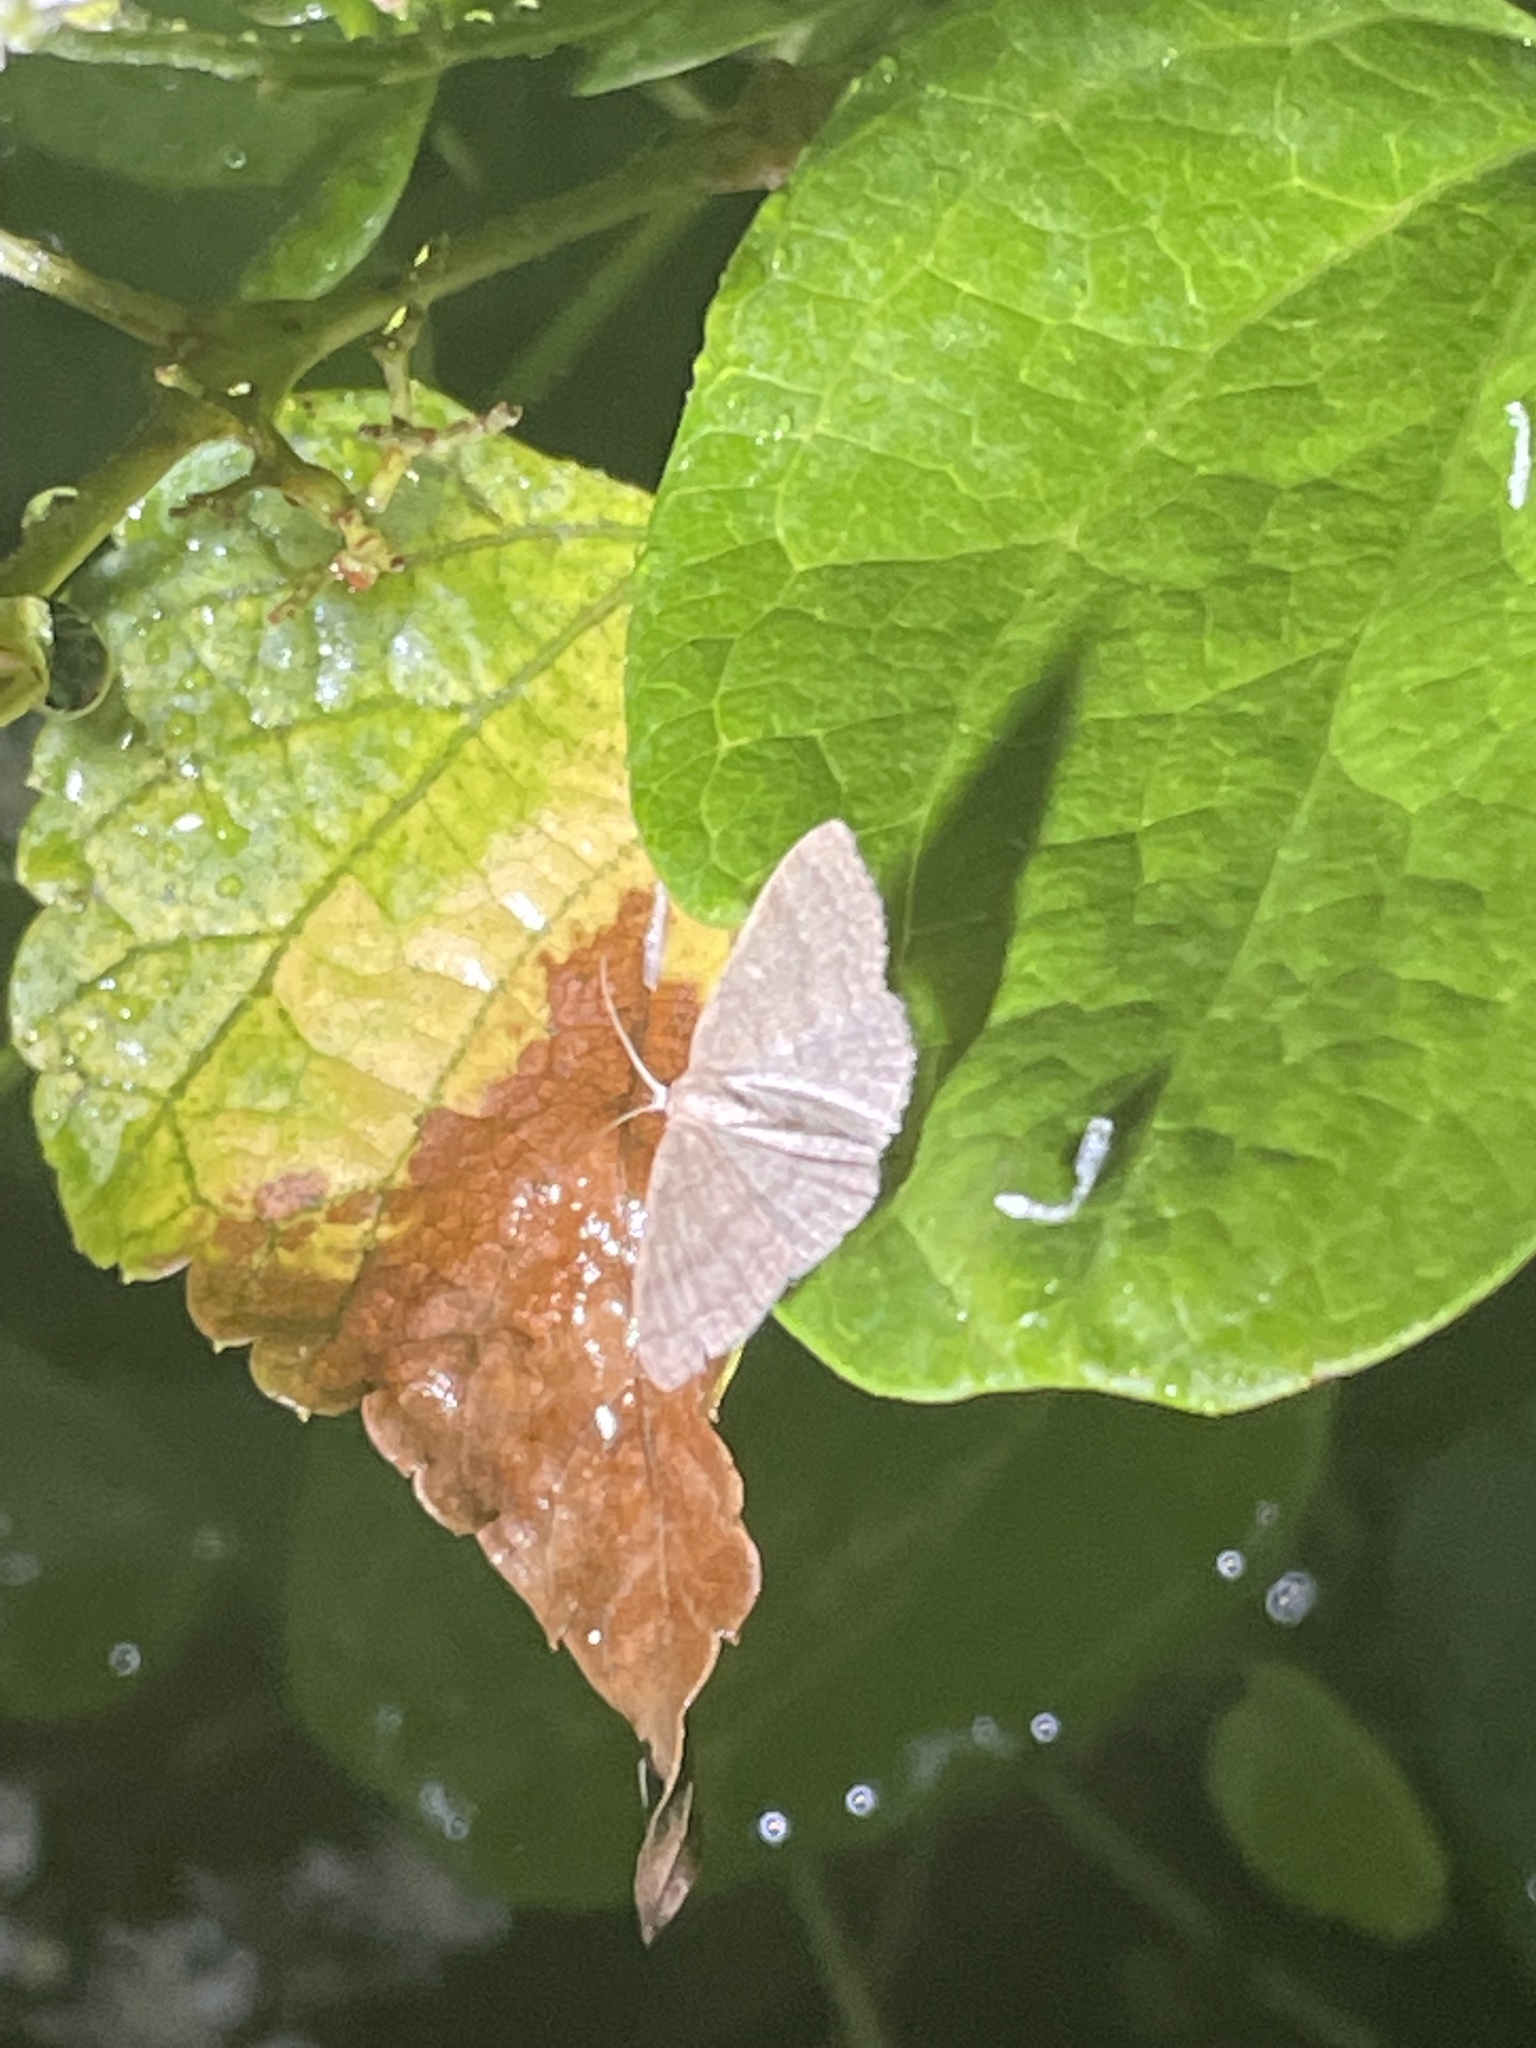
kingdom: Animalia
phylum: Arthropoda
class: Insecta
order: Lepidoptera
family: Geometridae
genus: Pleuroprucha
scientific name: Pleuroprucha insulsaria
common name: Common tan wave
